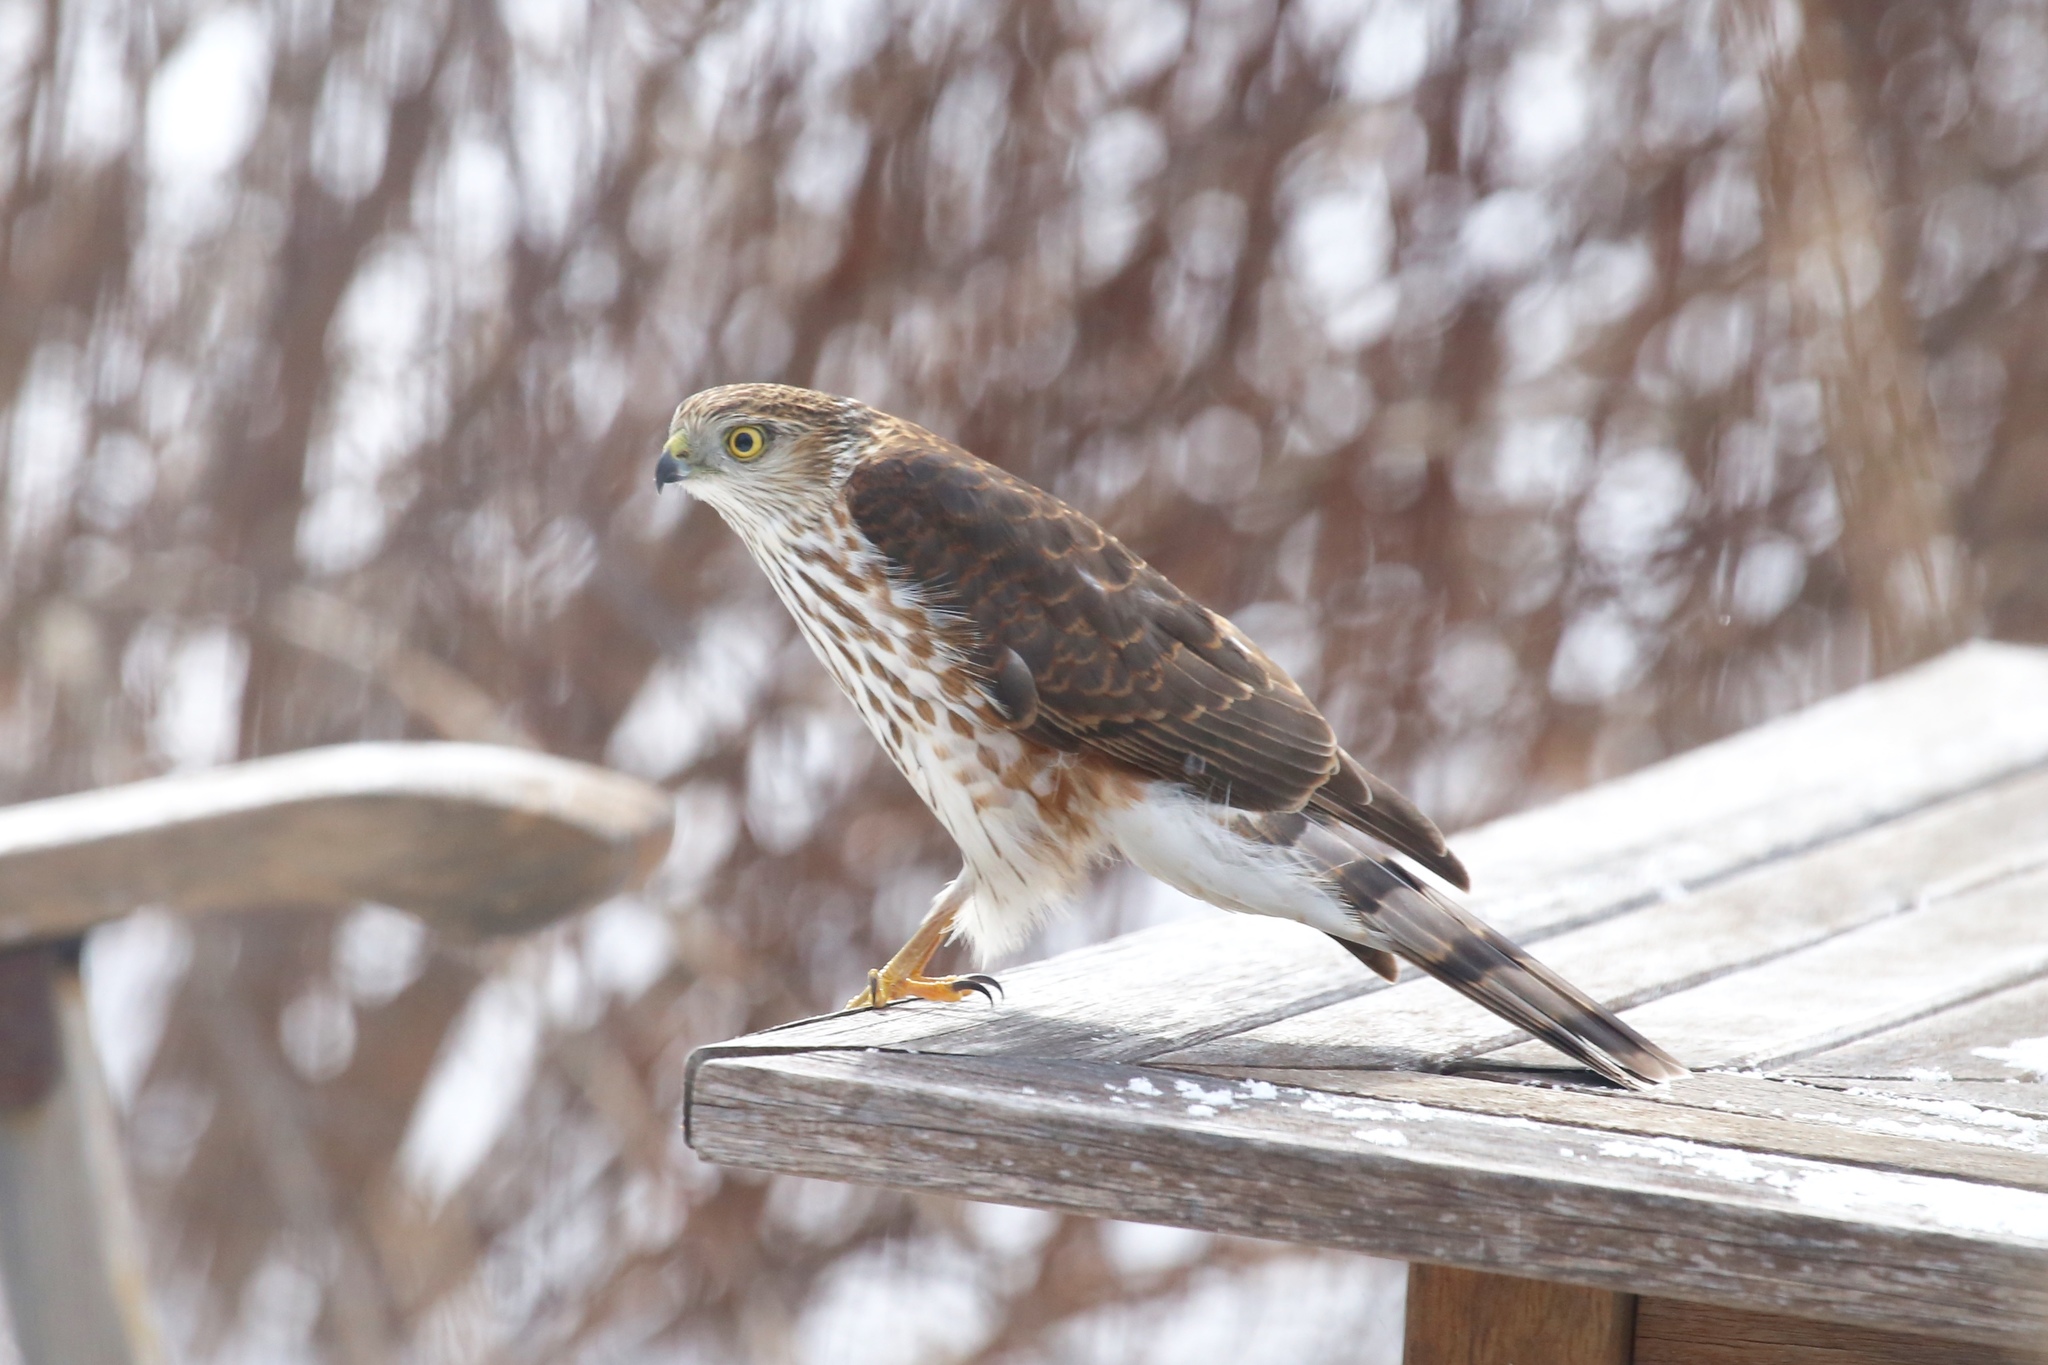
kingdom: Animalia
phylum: Chordata
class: Aves
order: Accipitriformes
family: Accipitridae
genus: Accipiter
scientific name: Accipiter striatus
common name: Sharp-shinned hawk
